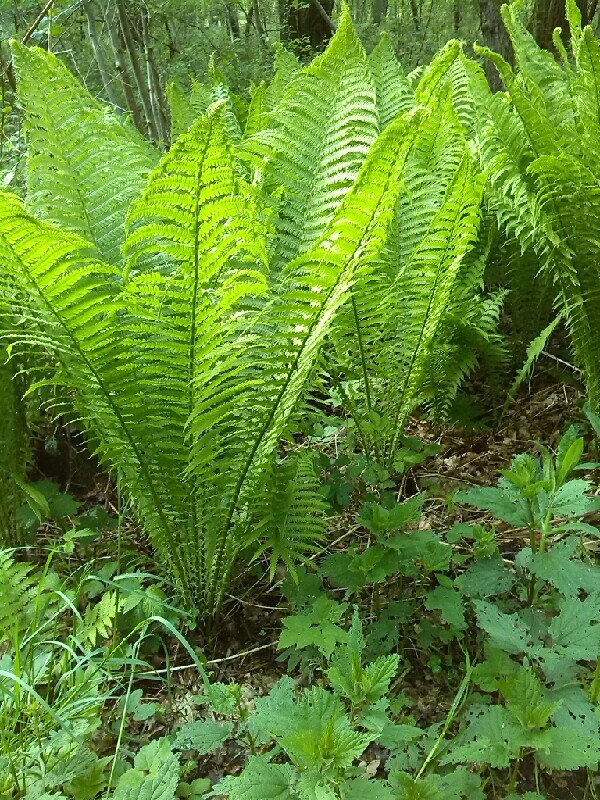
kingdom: Plantae
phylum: Tracheophyta
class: Polypodiopsida
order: Polypodiales
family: Onocleaceae
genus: Matteuccia
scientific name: Matteuccia struthiopteris
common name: Ostrich fern
